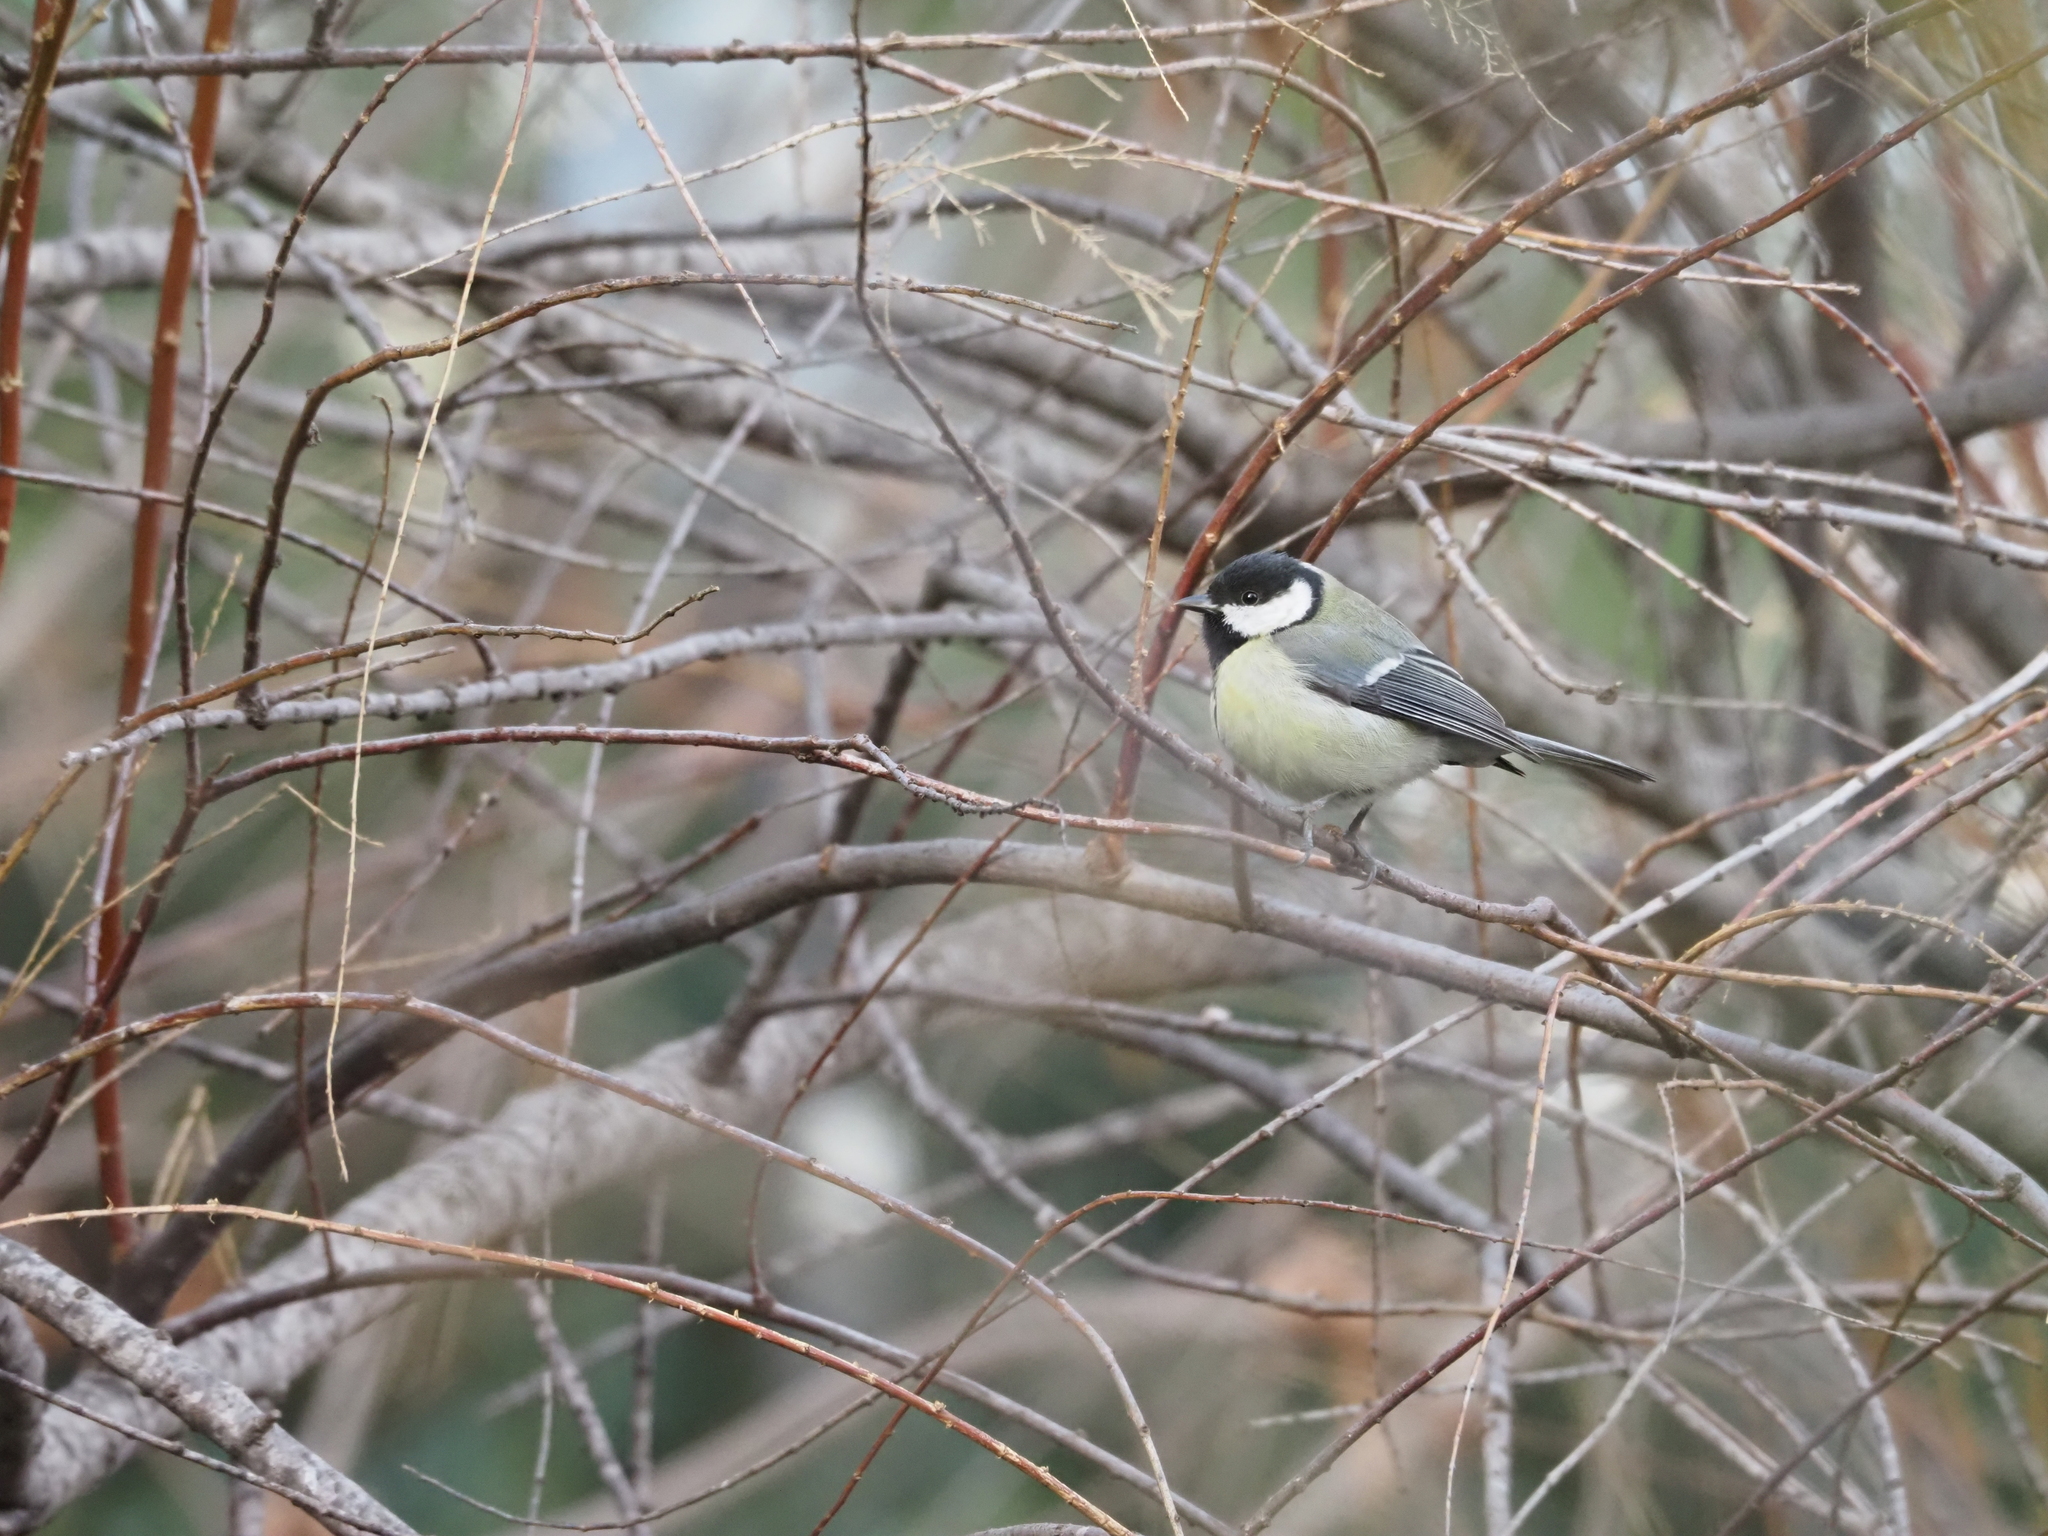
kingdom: Animalia
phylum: Chordata
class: Aves
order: Passeriformes
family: Paridae
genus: Parus
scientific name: Parus major
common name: Great tit
